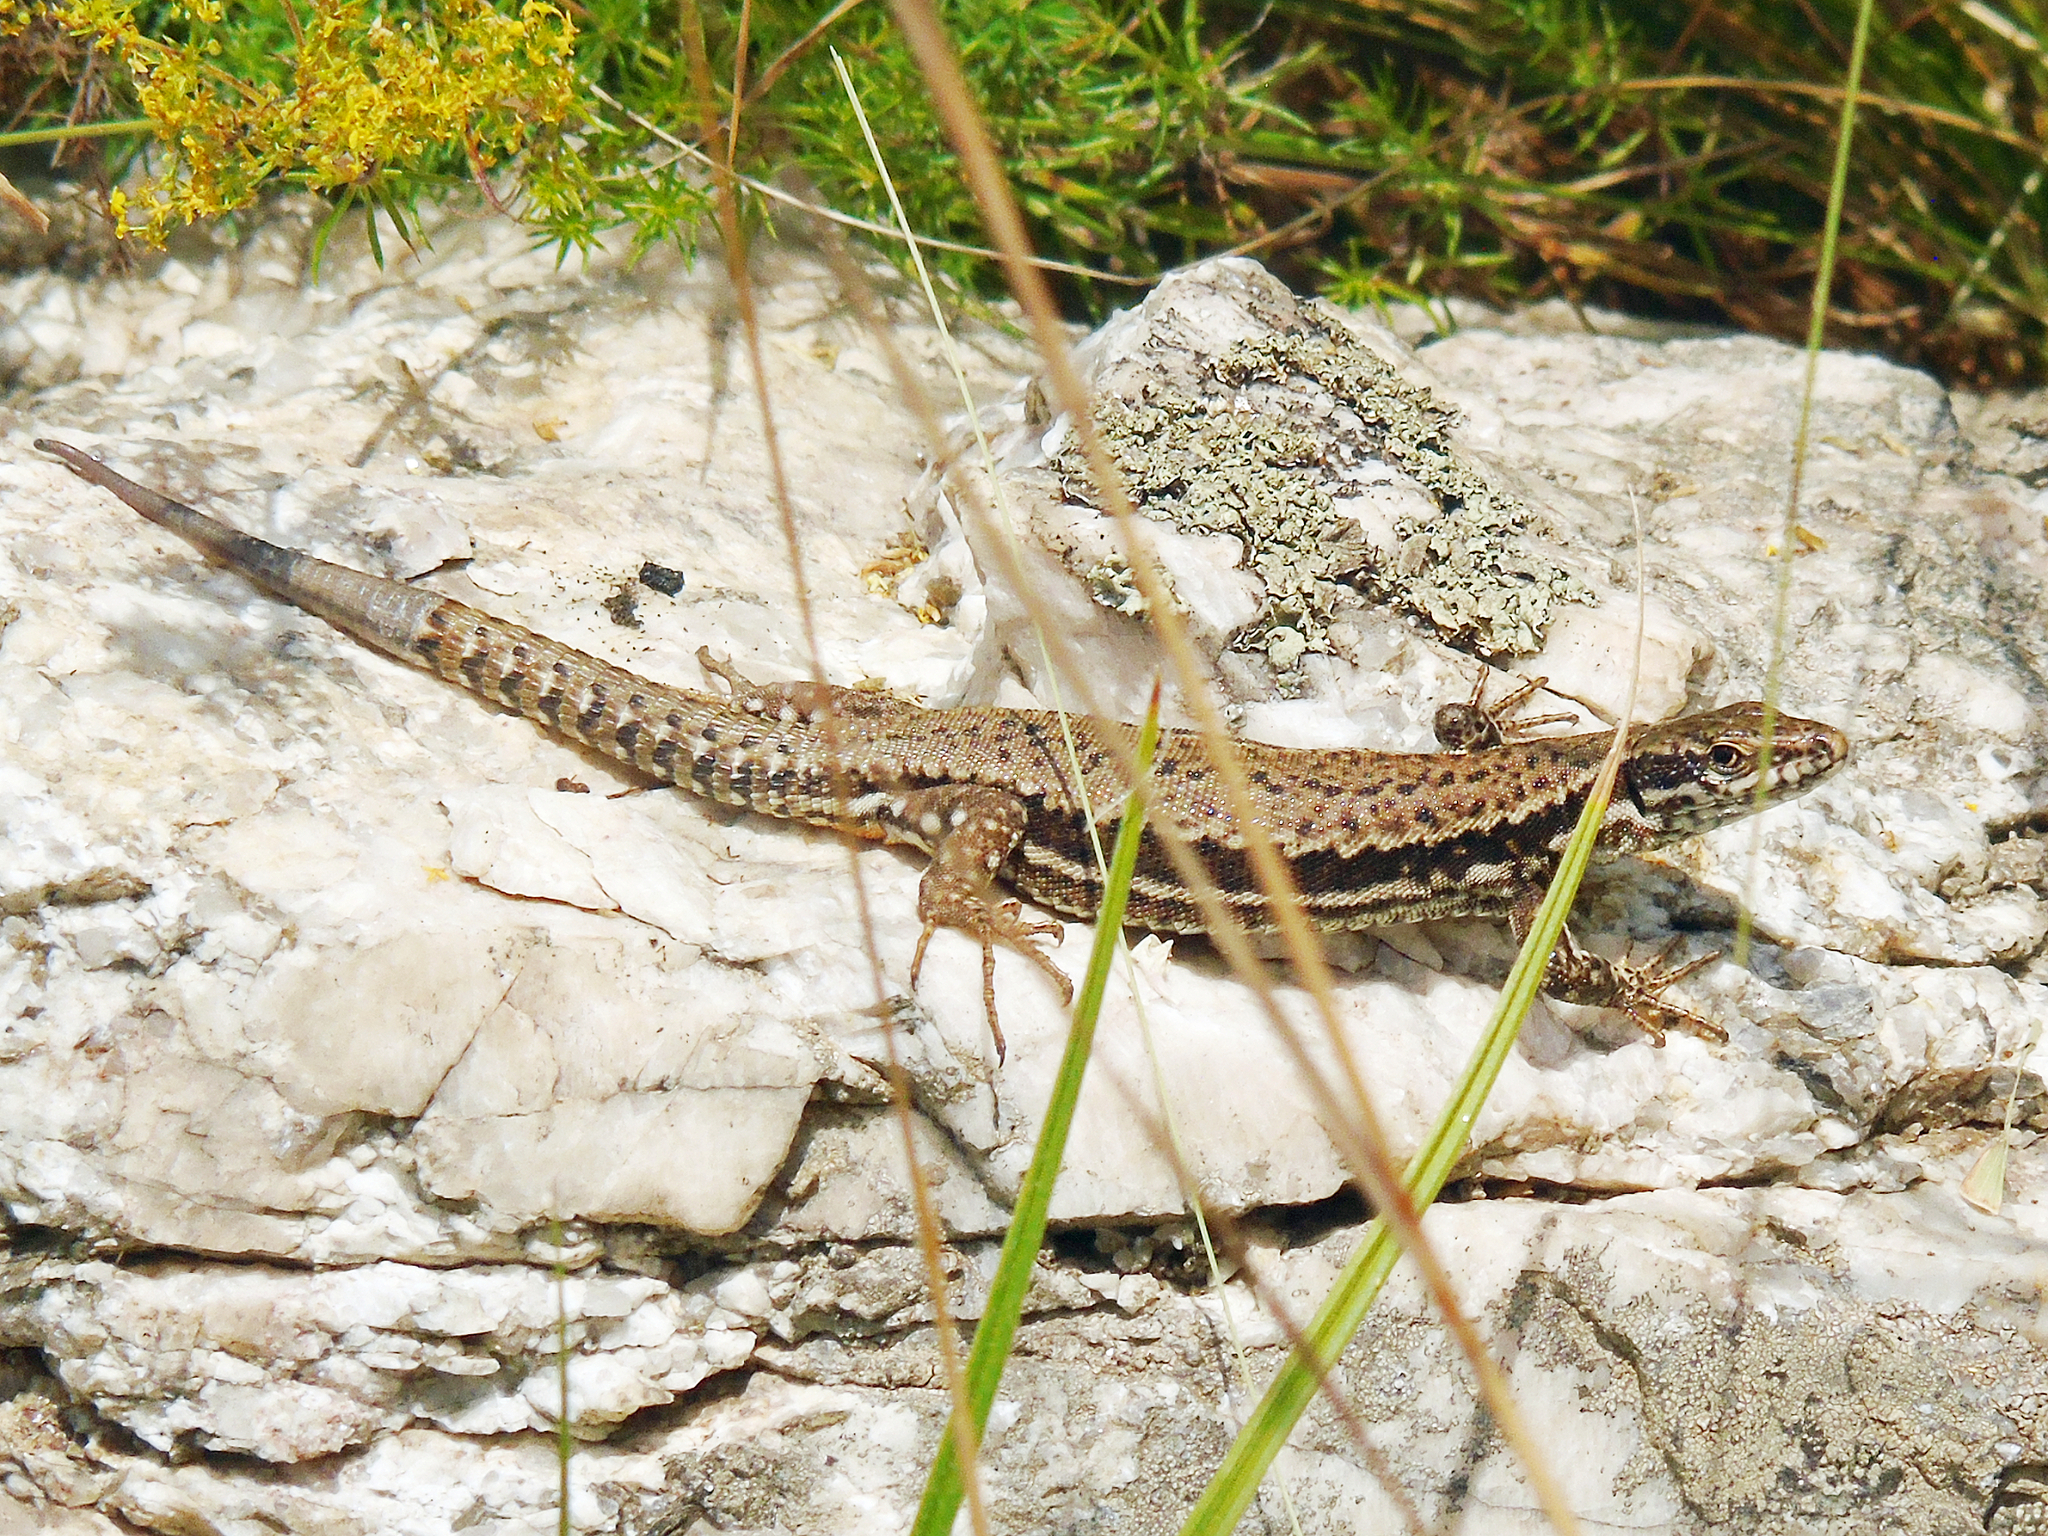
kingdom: Animalia
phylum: Chordata
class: Squamata
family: Lacertidae
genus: Podarcis
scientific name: Podarcis muralis
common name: Common wall lizard
